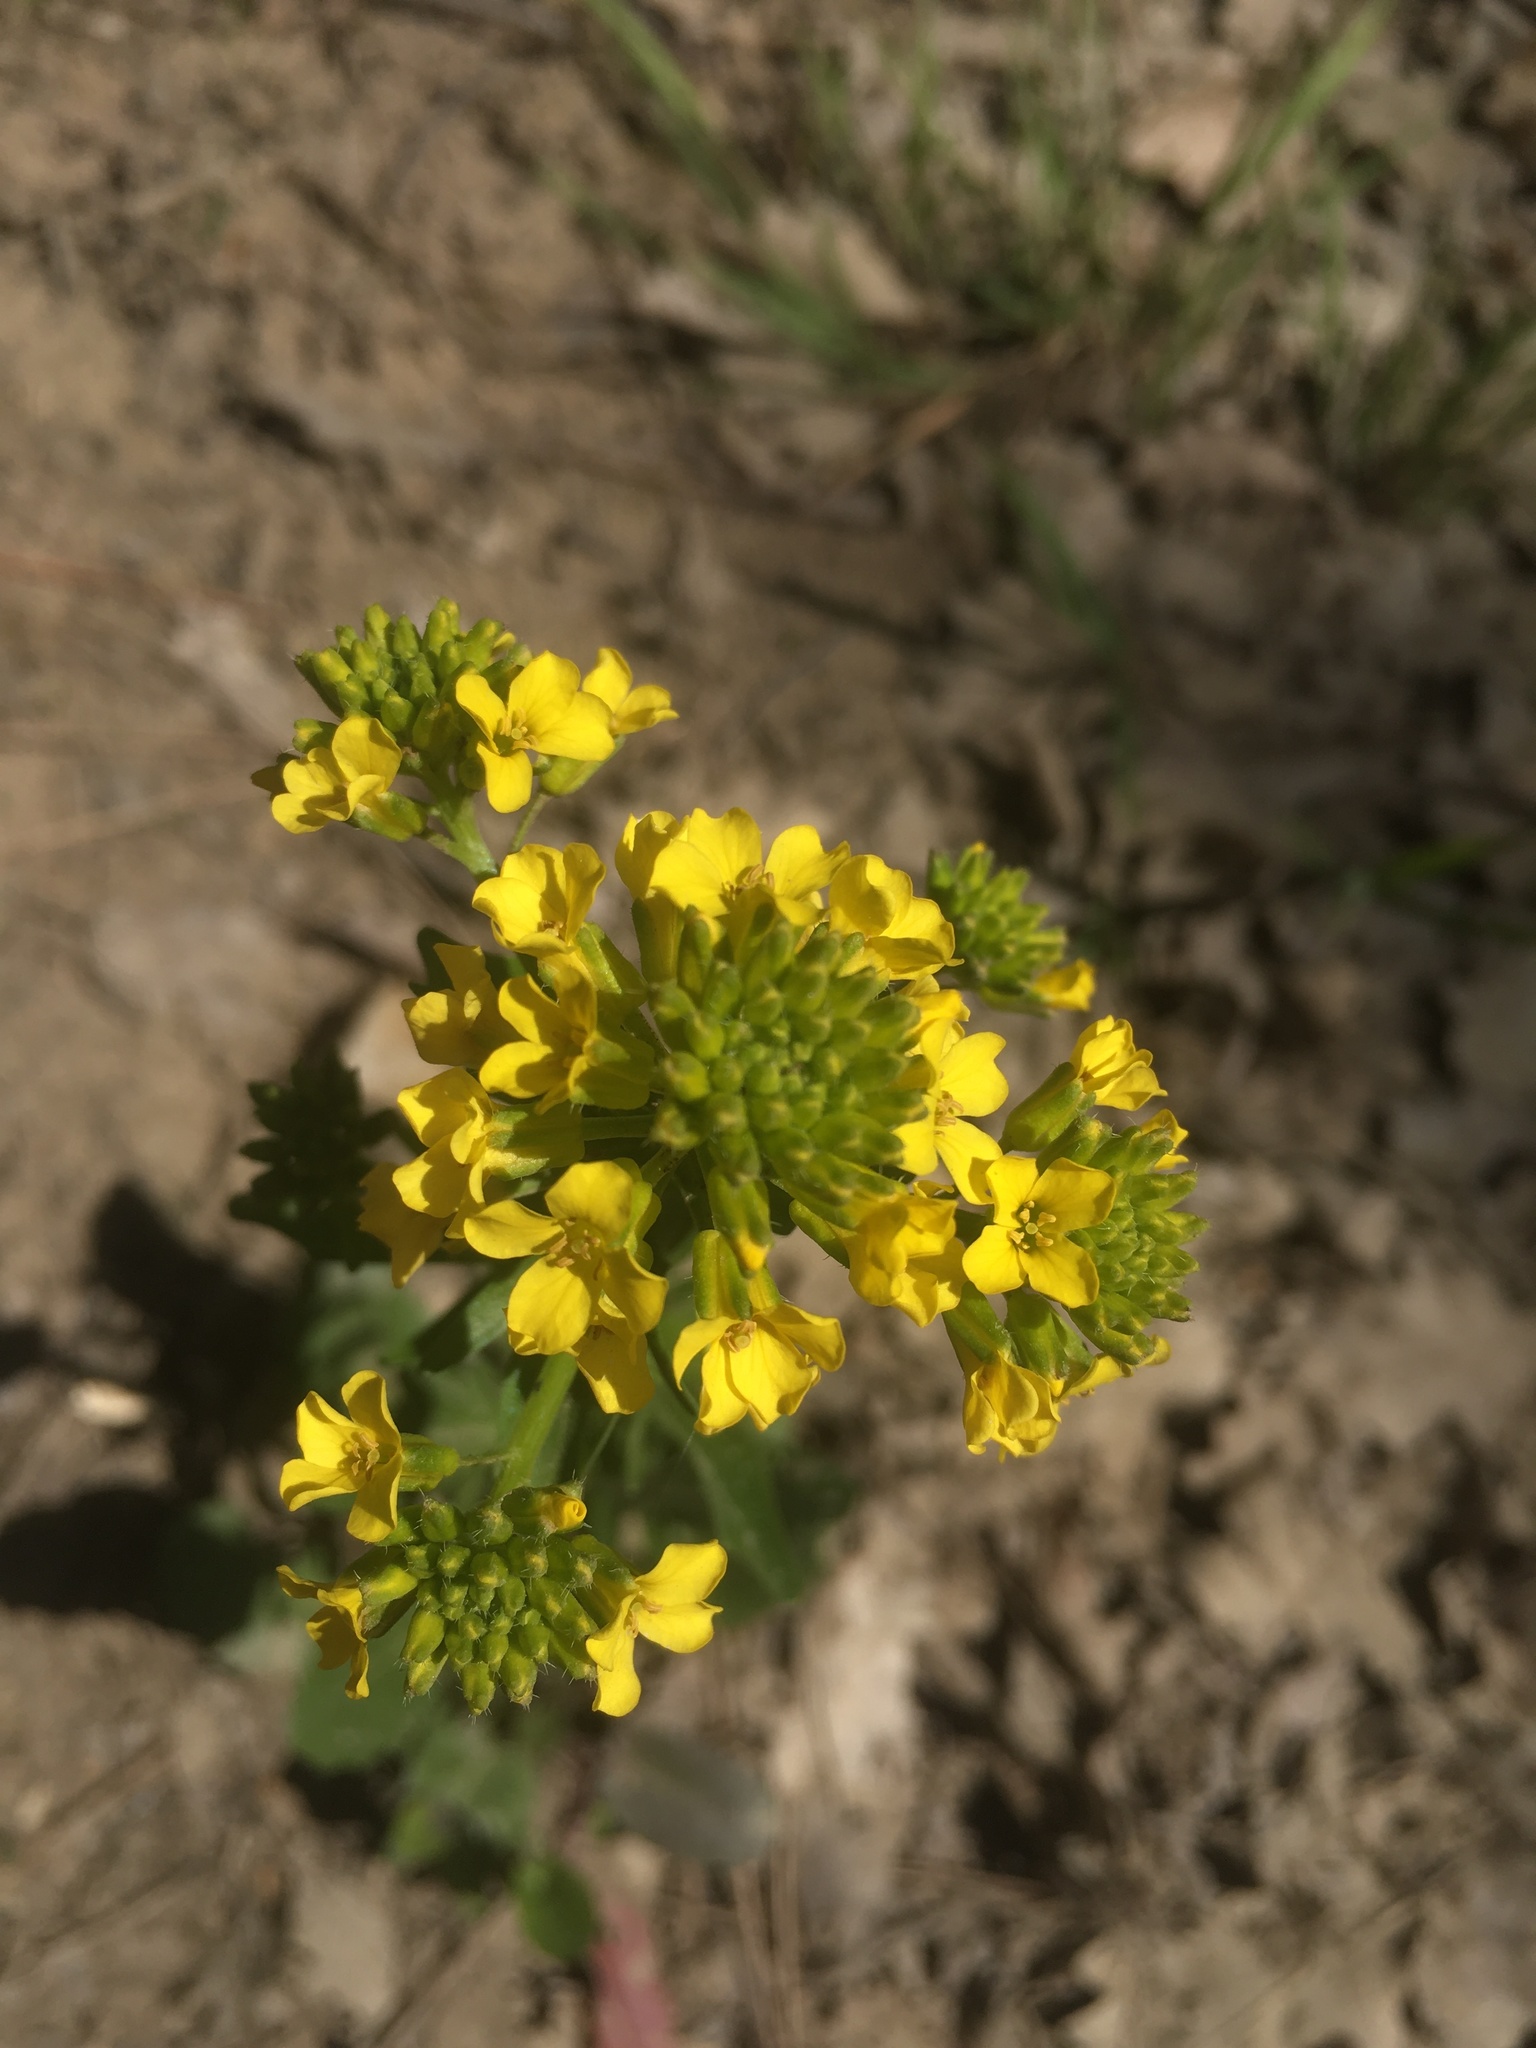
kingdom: Plantae
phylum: Tracheophyta
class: Magnoliopsida
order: Brassicales
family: Brassicaceae
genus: Barbarea
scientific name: Barbarea vulgaris
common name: Cressy-greens
